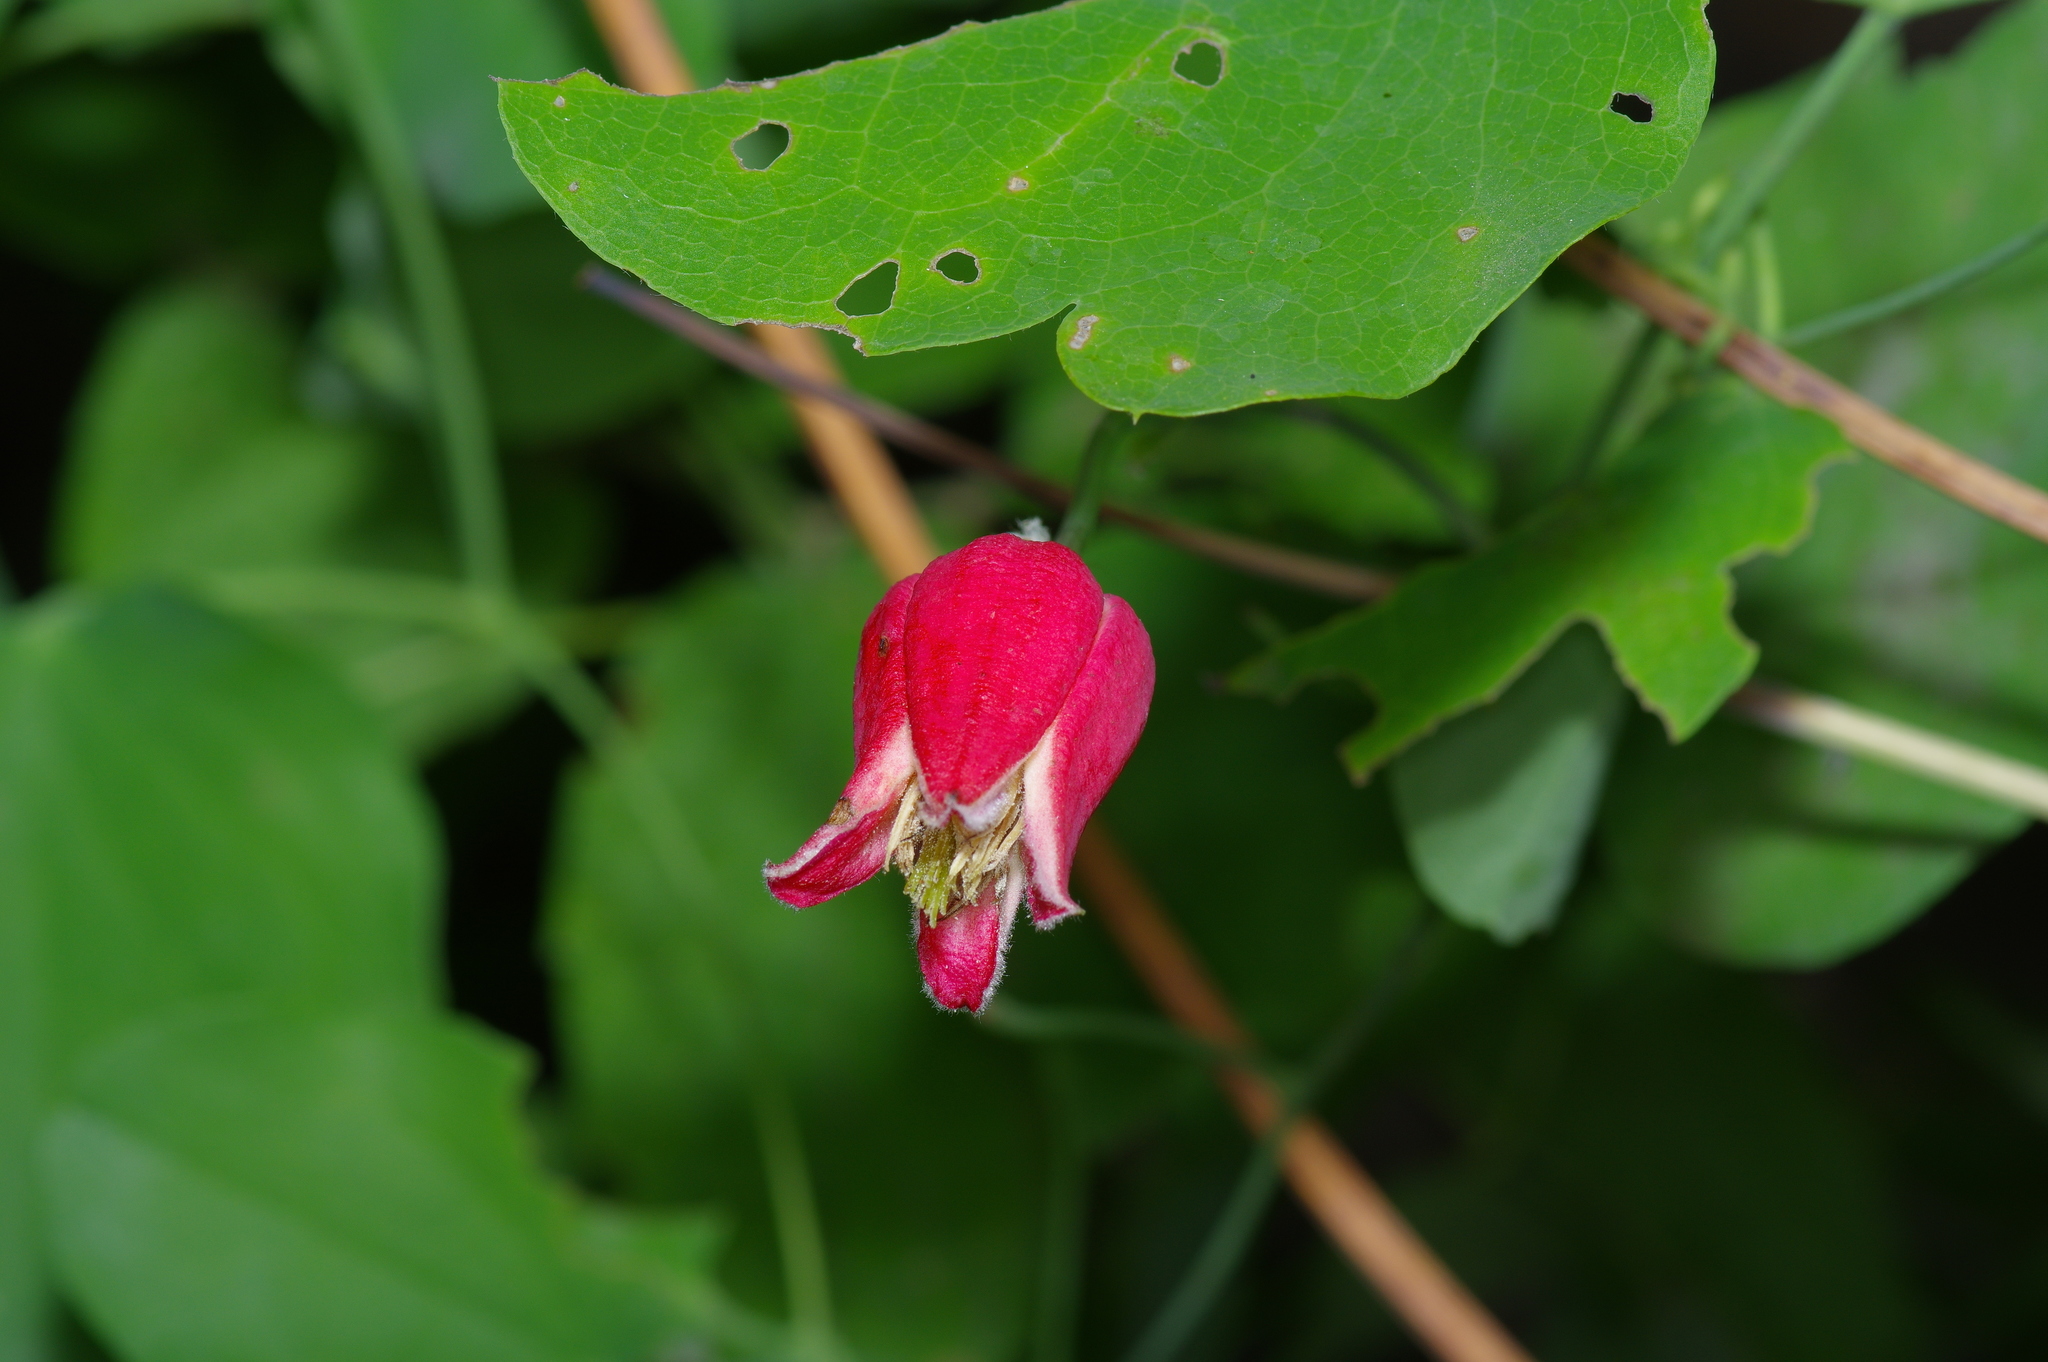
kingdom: Plantae
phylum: Tracheophyta
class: Magnoliopsida
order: Ranunculales
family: Ranunculaceae
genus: Clematis
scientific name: Clematis texensis
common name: Crimson clematis
